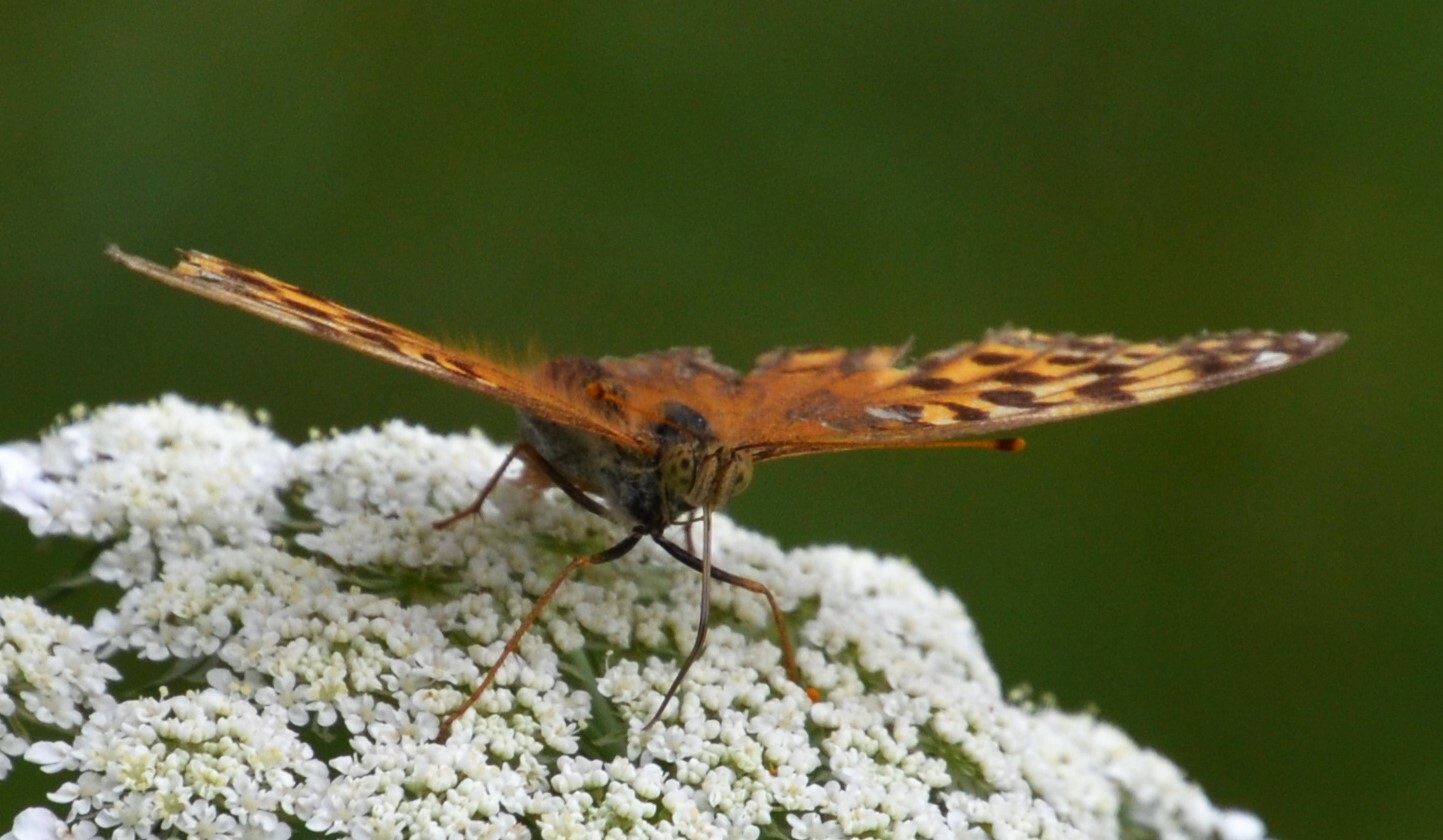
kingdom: Animalia
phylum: Arthropoda
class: Insecta
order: Lepidoptera
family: Nymphalidae
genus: Argynnis
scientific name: Argynnis paphia
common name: Silver-washed fritillary
